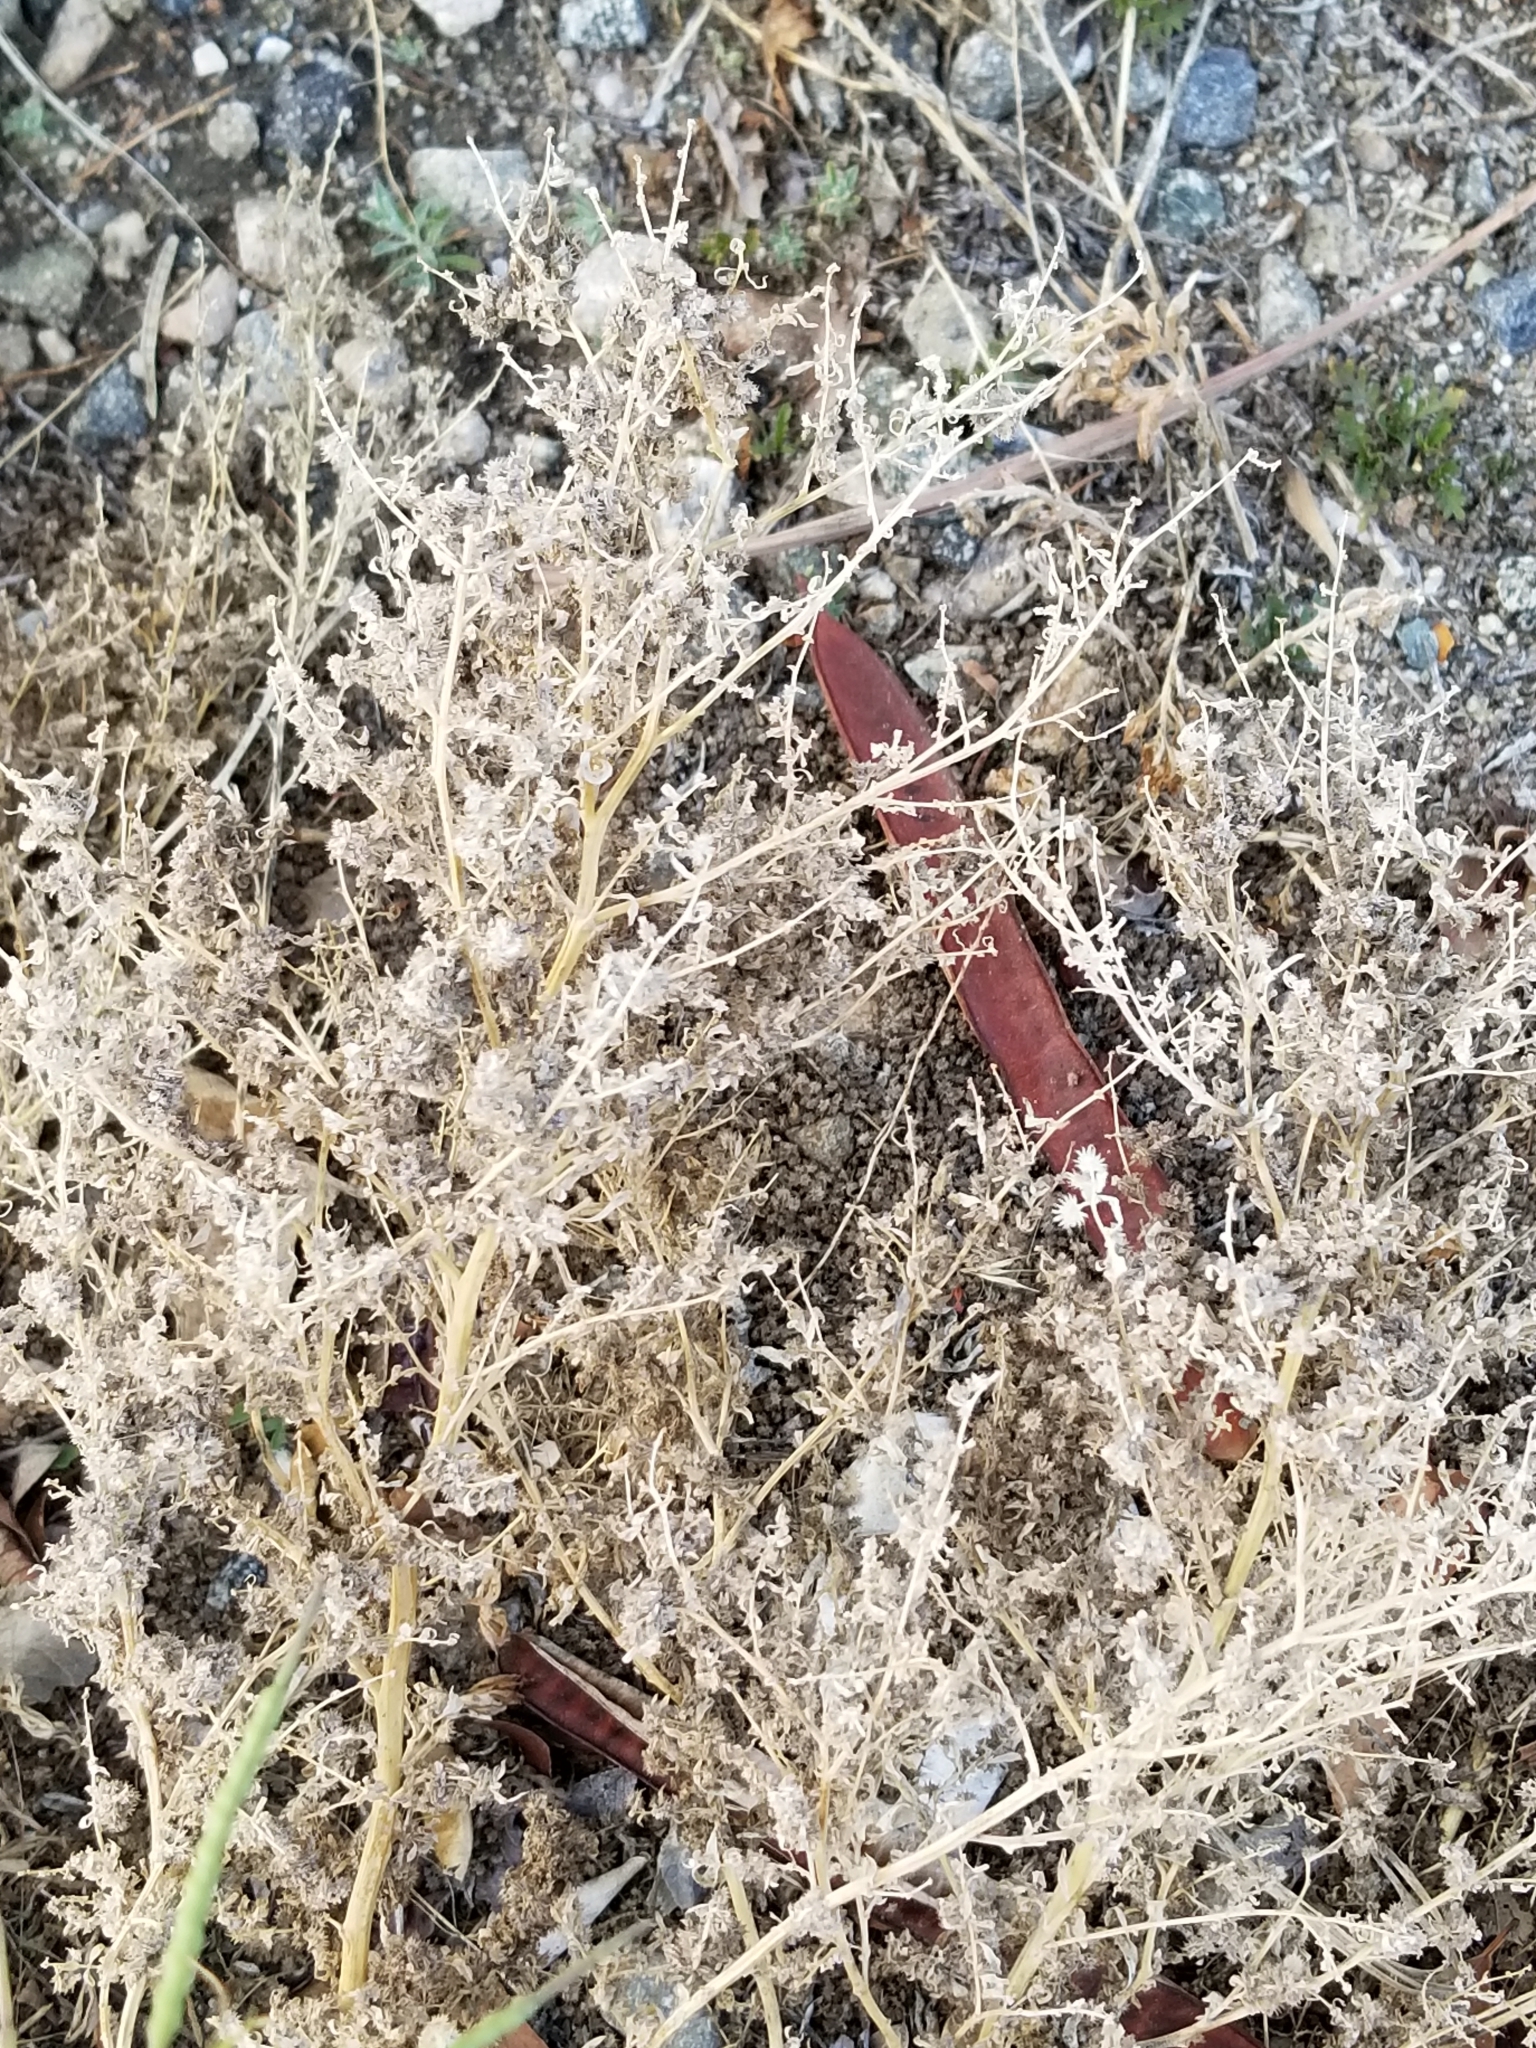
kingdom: Plantae
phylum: Tracheophyta
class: Magnoliopsida
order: Asterales
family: Asteraceae
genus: Ambrosia
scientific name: Ambrosia acanthicarpa
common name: Hooker's bur ragweed
